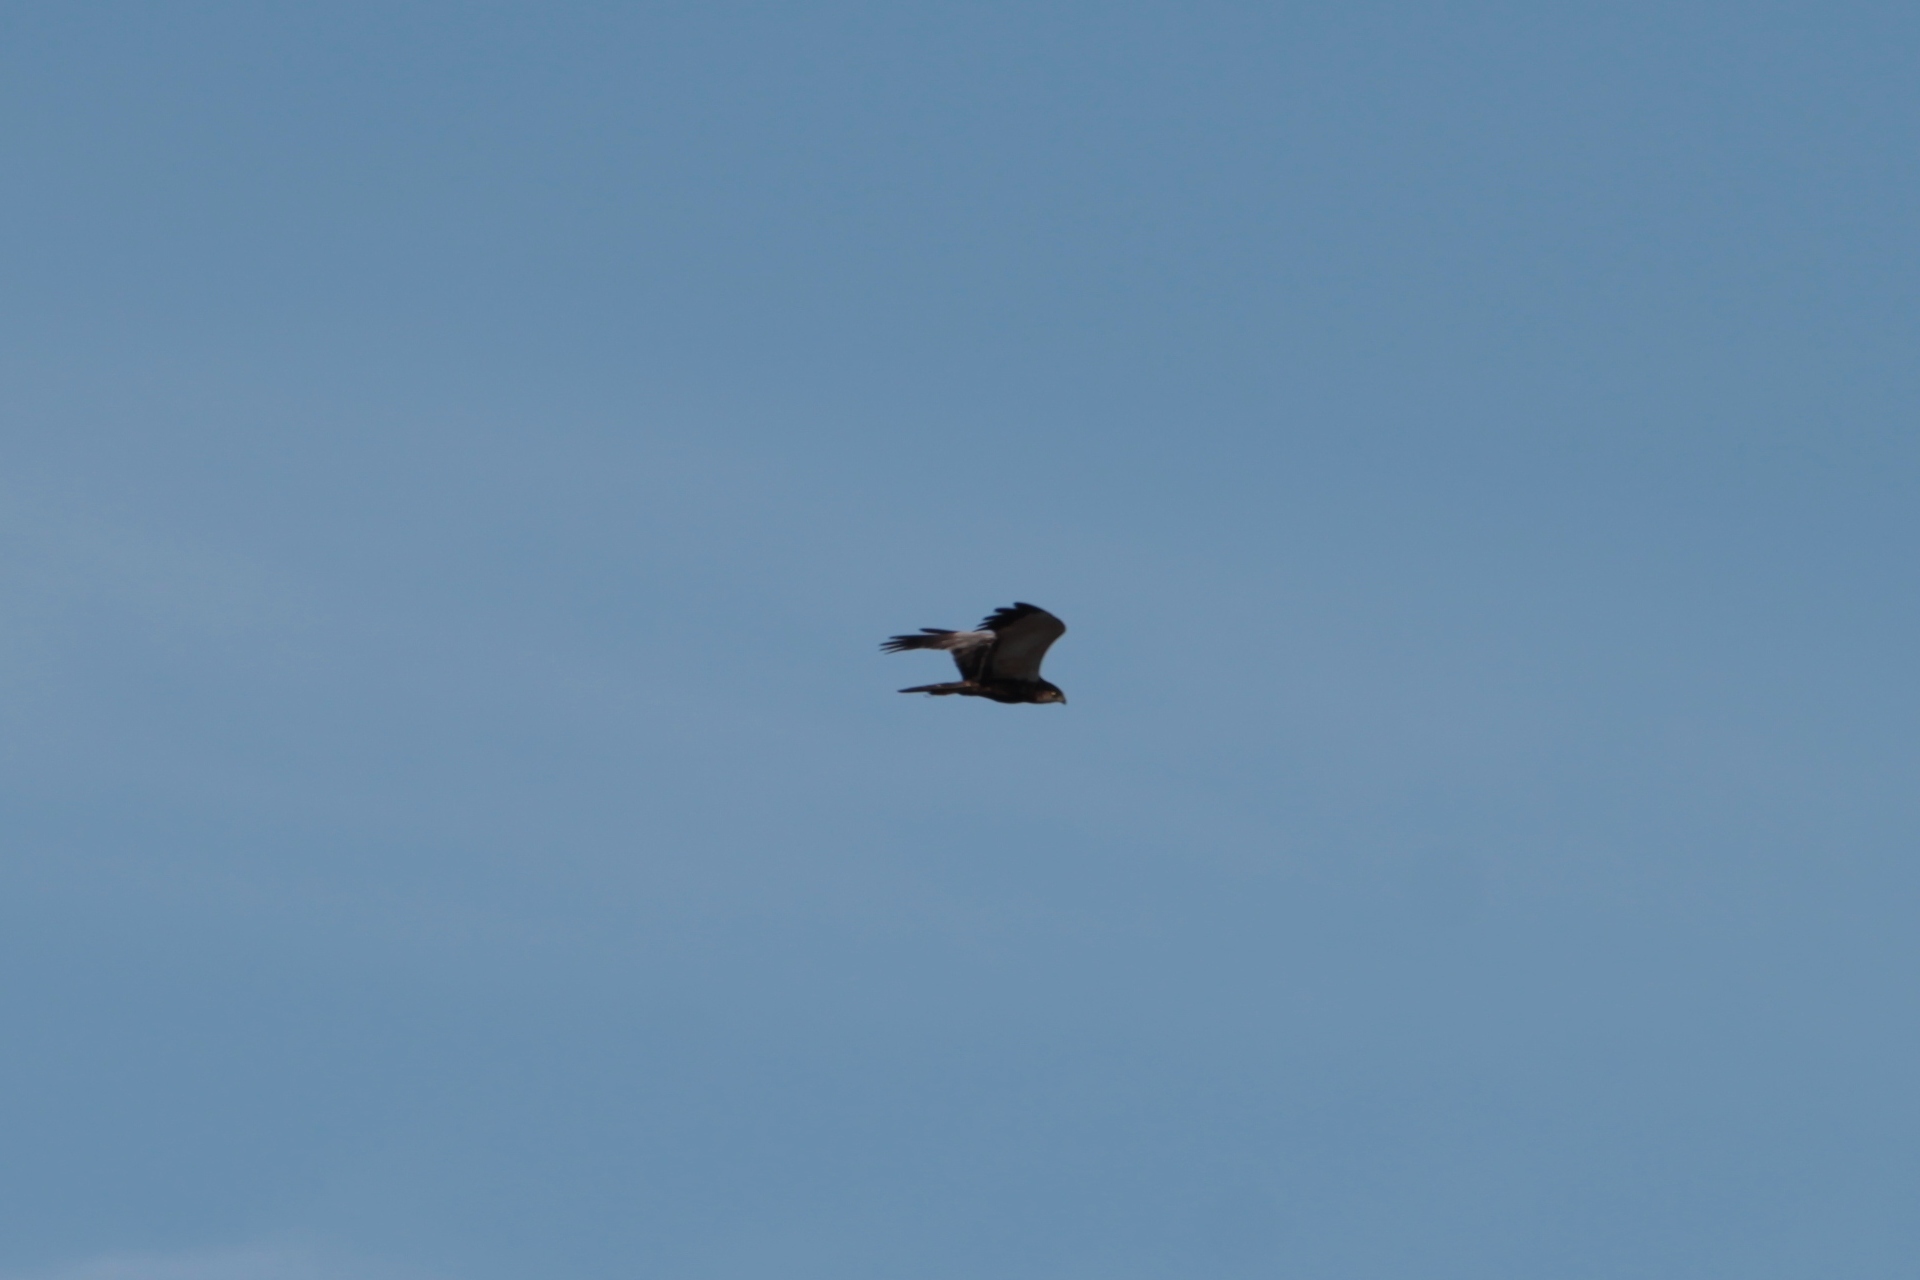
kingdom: Animalia
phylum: Chordata
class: Aves
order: Accipitriformes
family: Accipitridae
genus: Circus
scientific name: Circus aeruginosus
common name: Western marsh harrier
